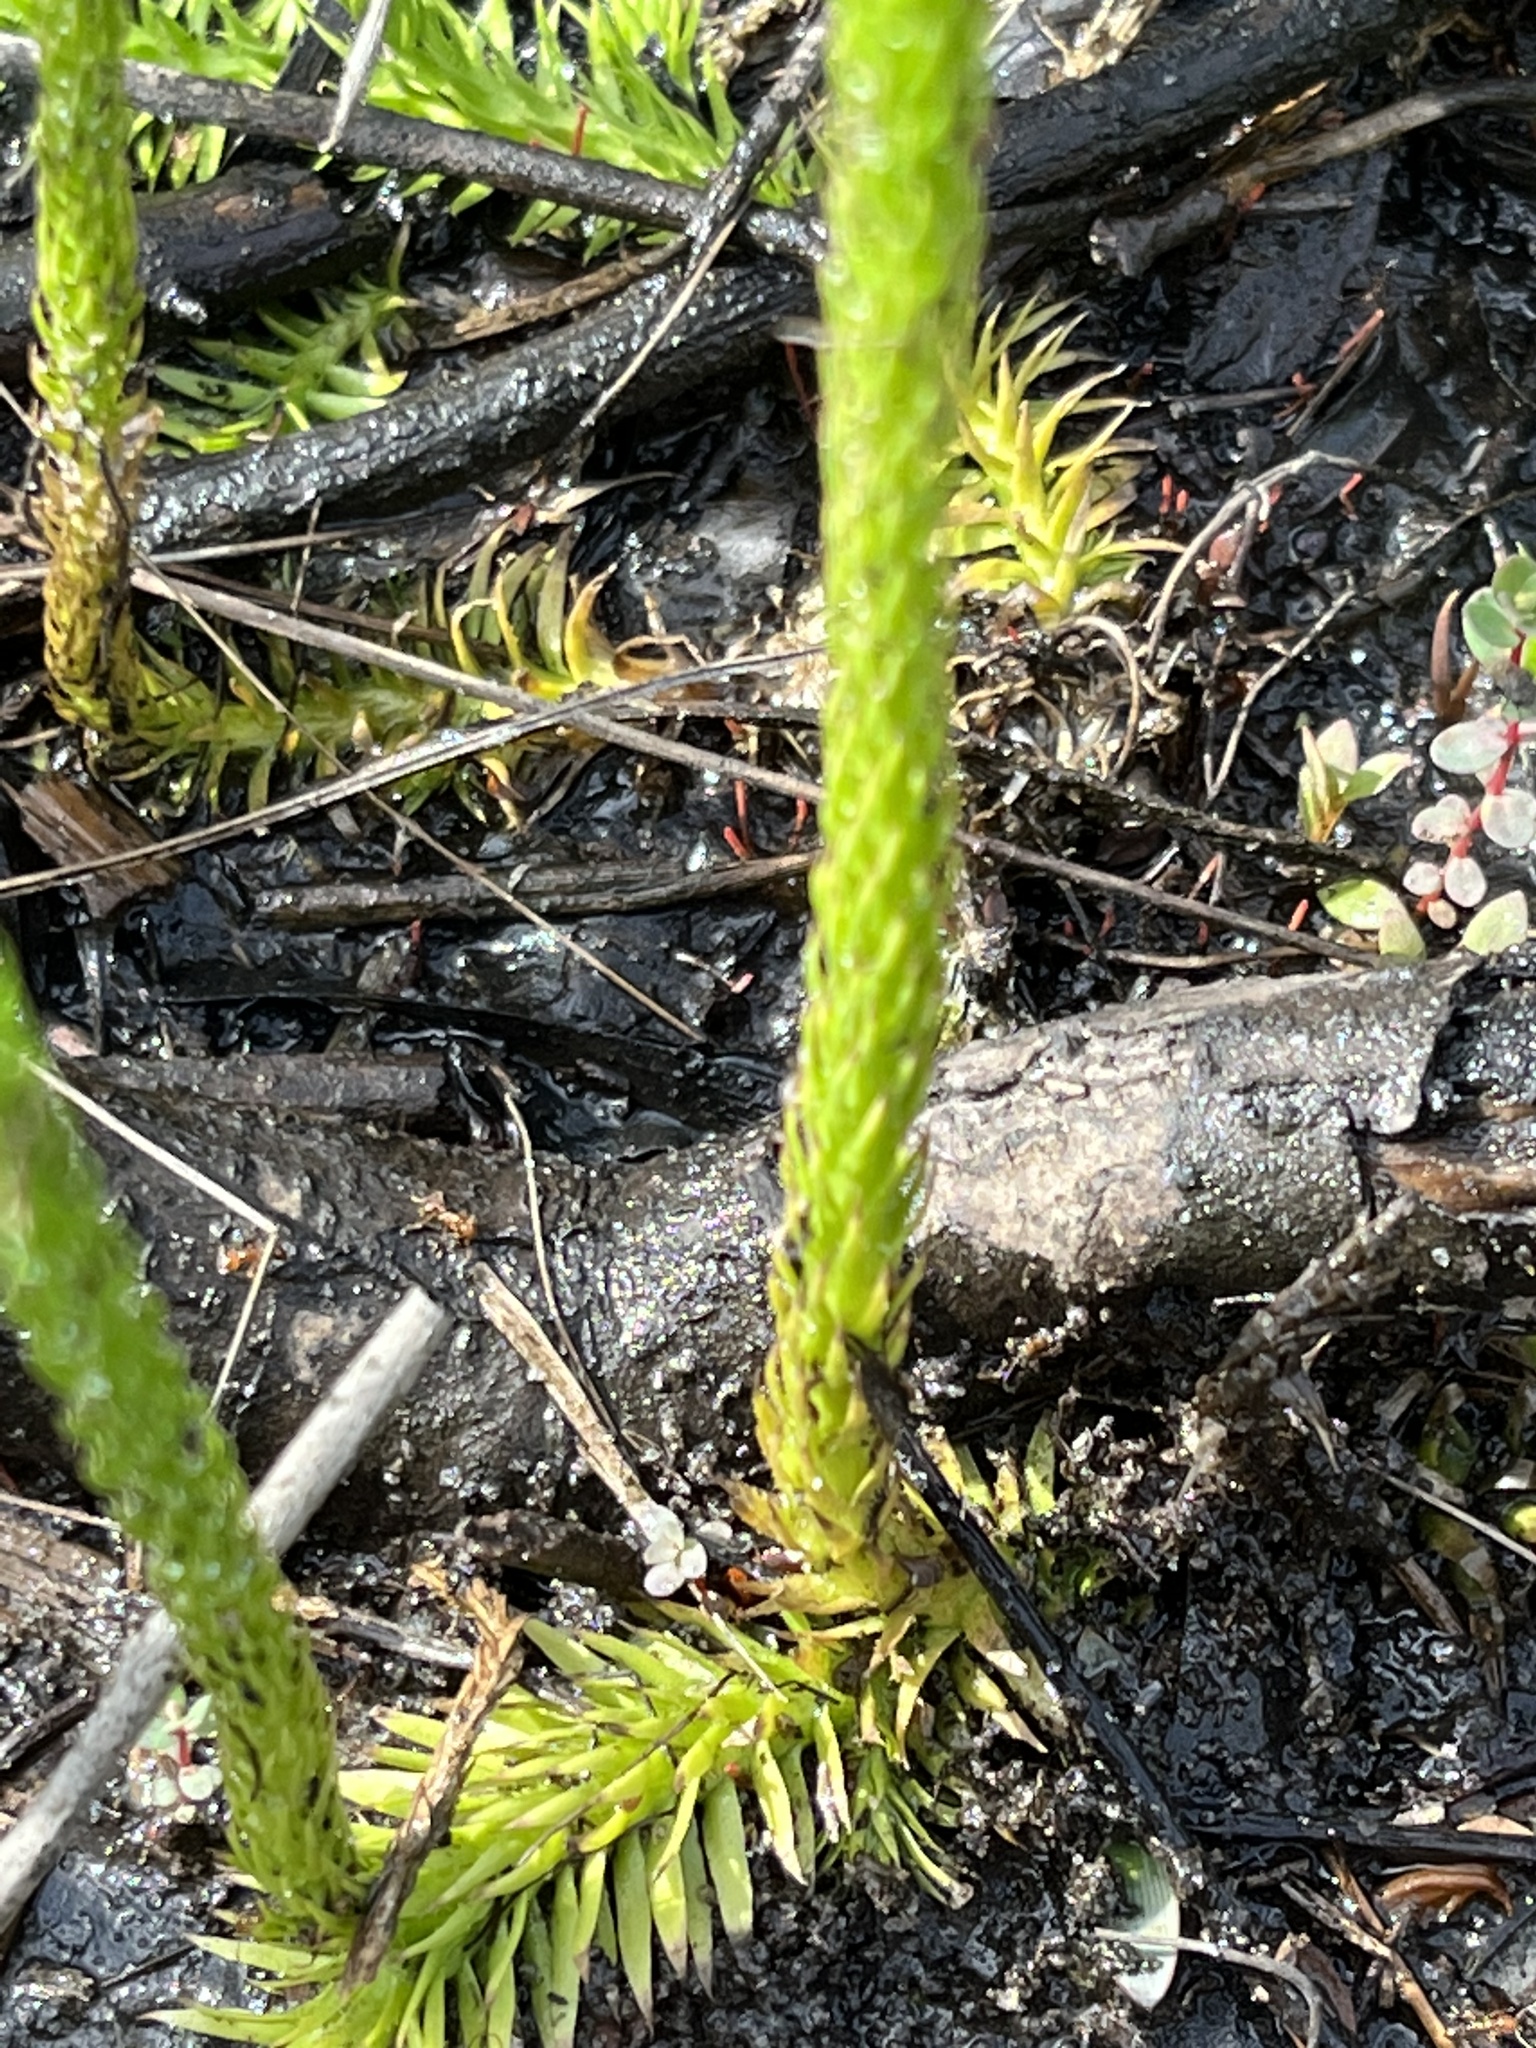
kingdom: Plantae
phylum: Tracheophyta
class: Lycopodiopsida
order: Lycopodiales
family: Lycopodiaceae
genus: Lycopodiella
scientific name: Lycopodiella appressa
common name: Appressed bog clubmoss
